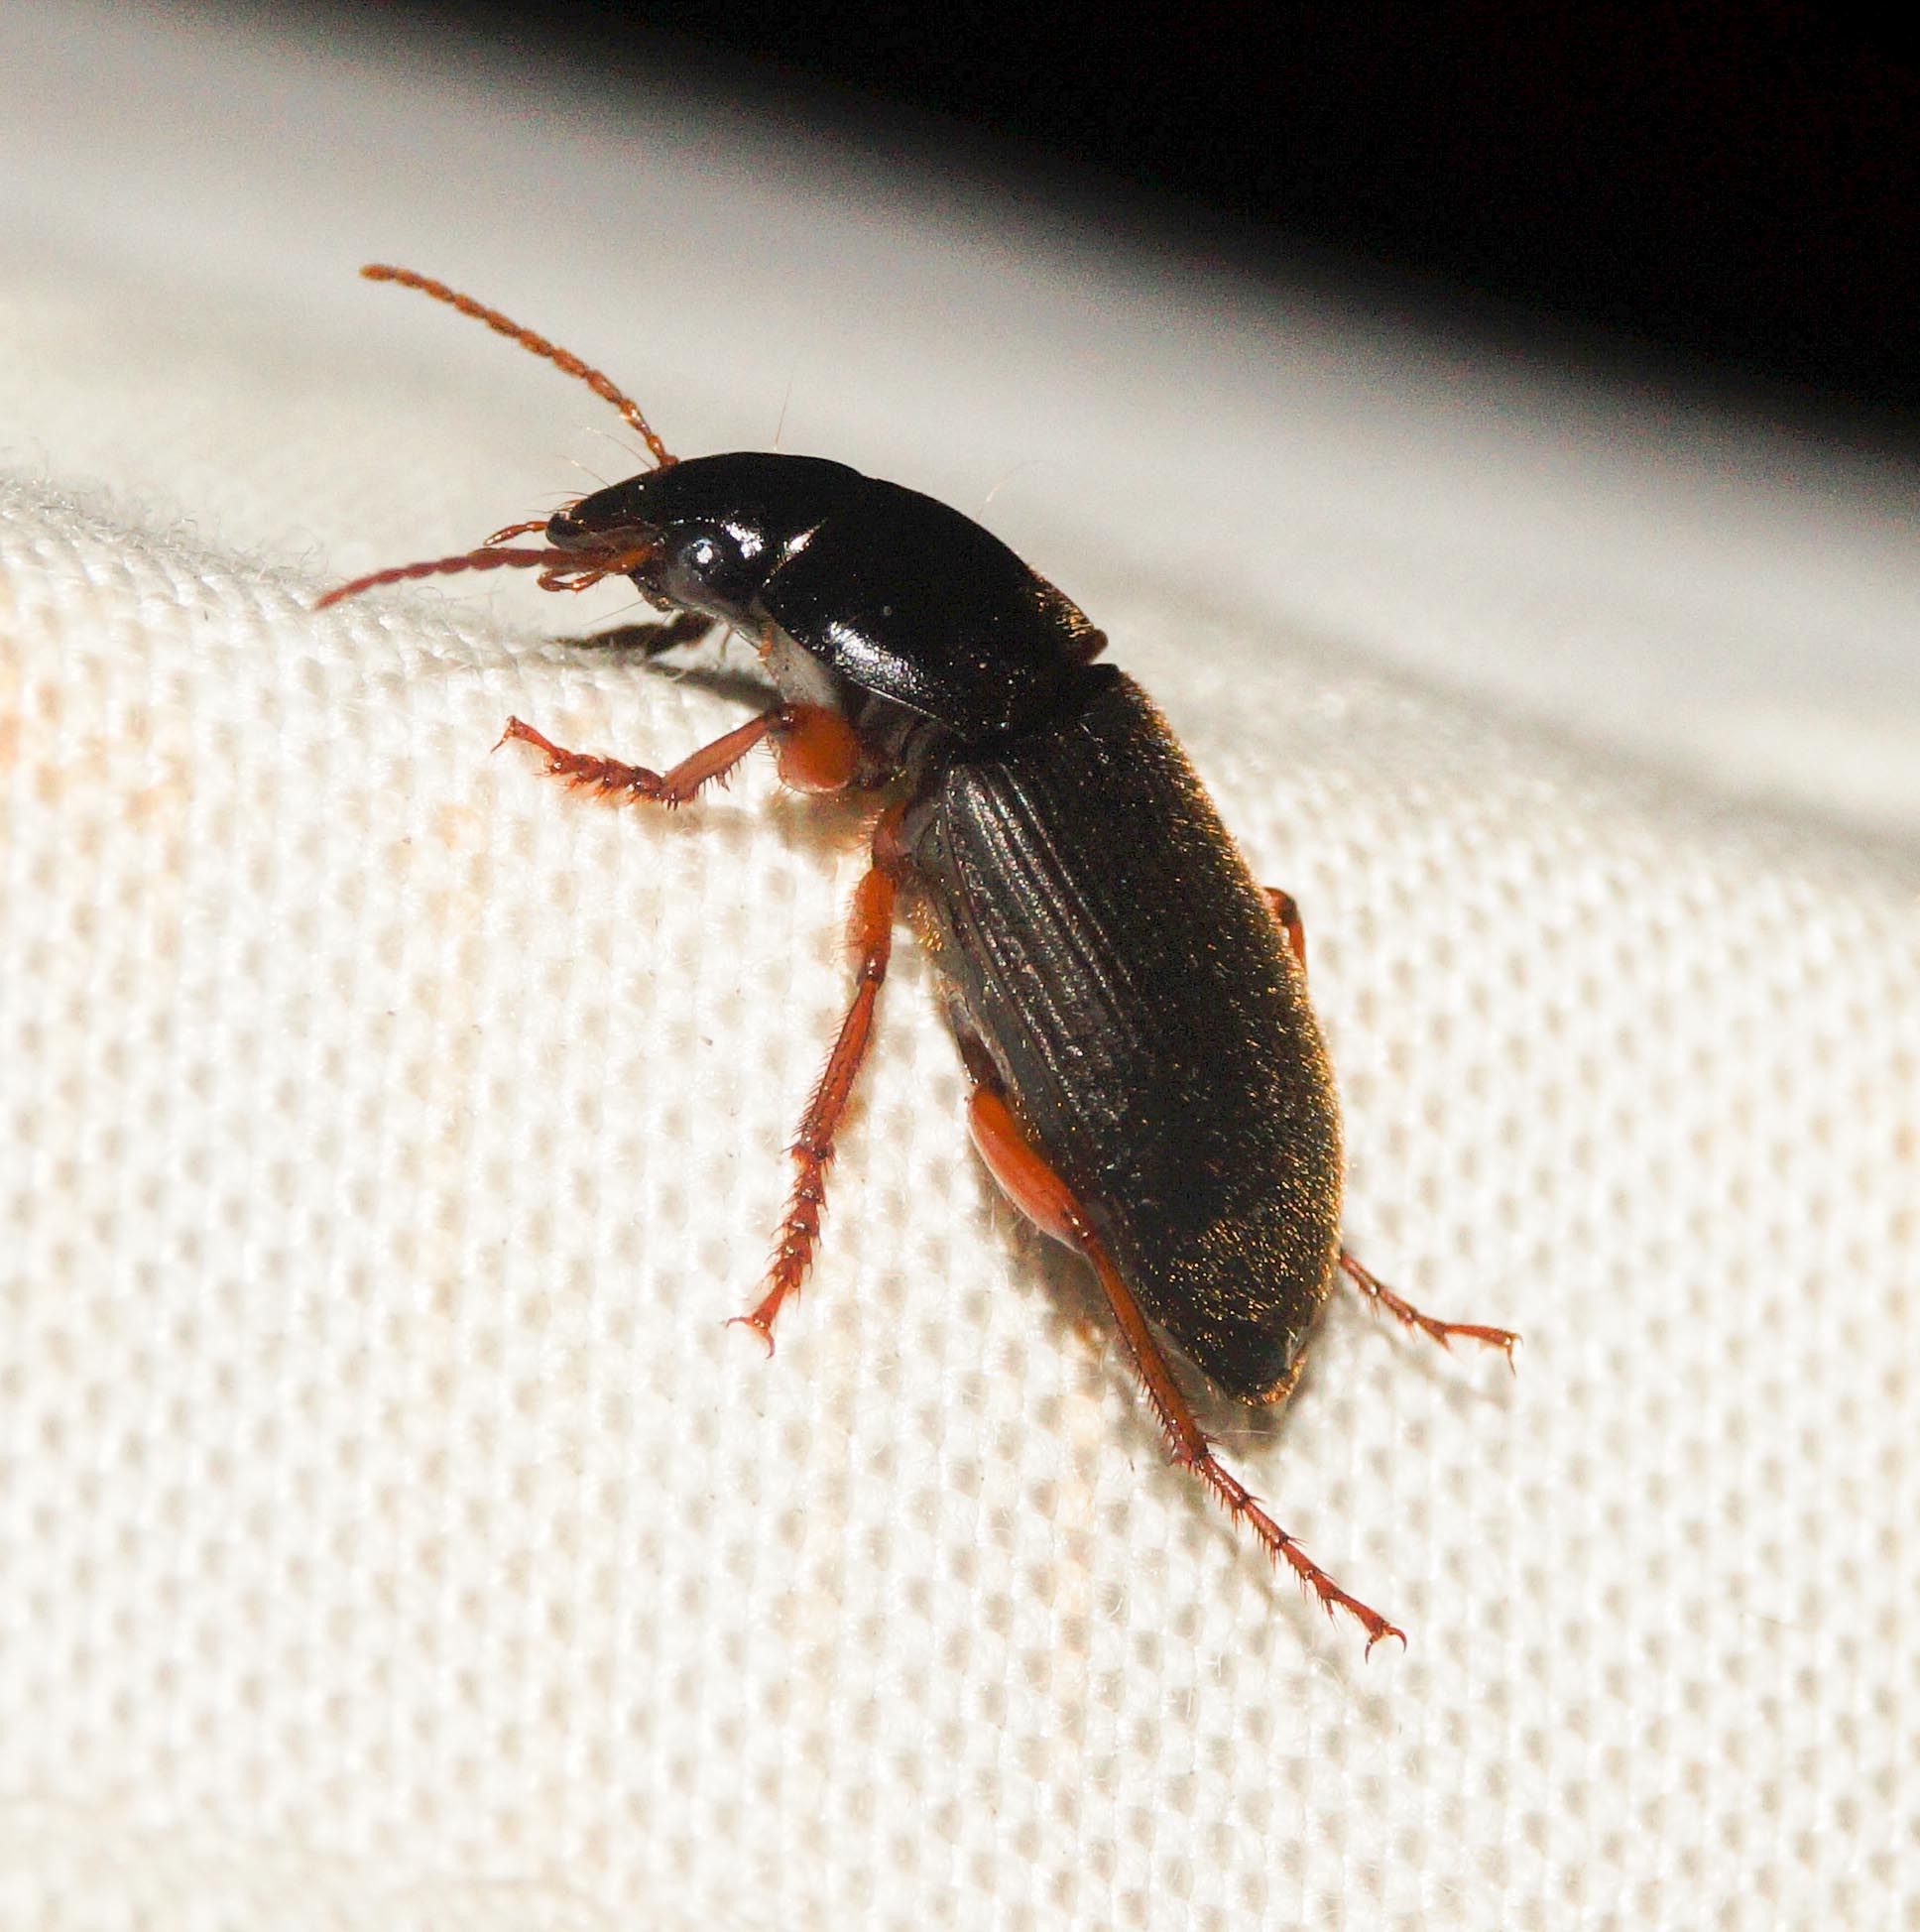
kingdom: Animalia
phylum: Arthropoda
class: Insecta
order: Coleoptera
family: Carabidae
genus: Harpalus
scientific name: Harpalus rufipes
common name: Strawberry harp ground beetle
